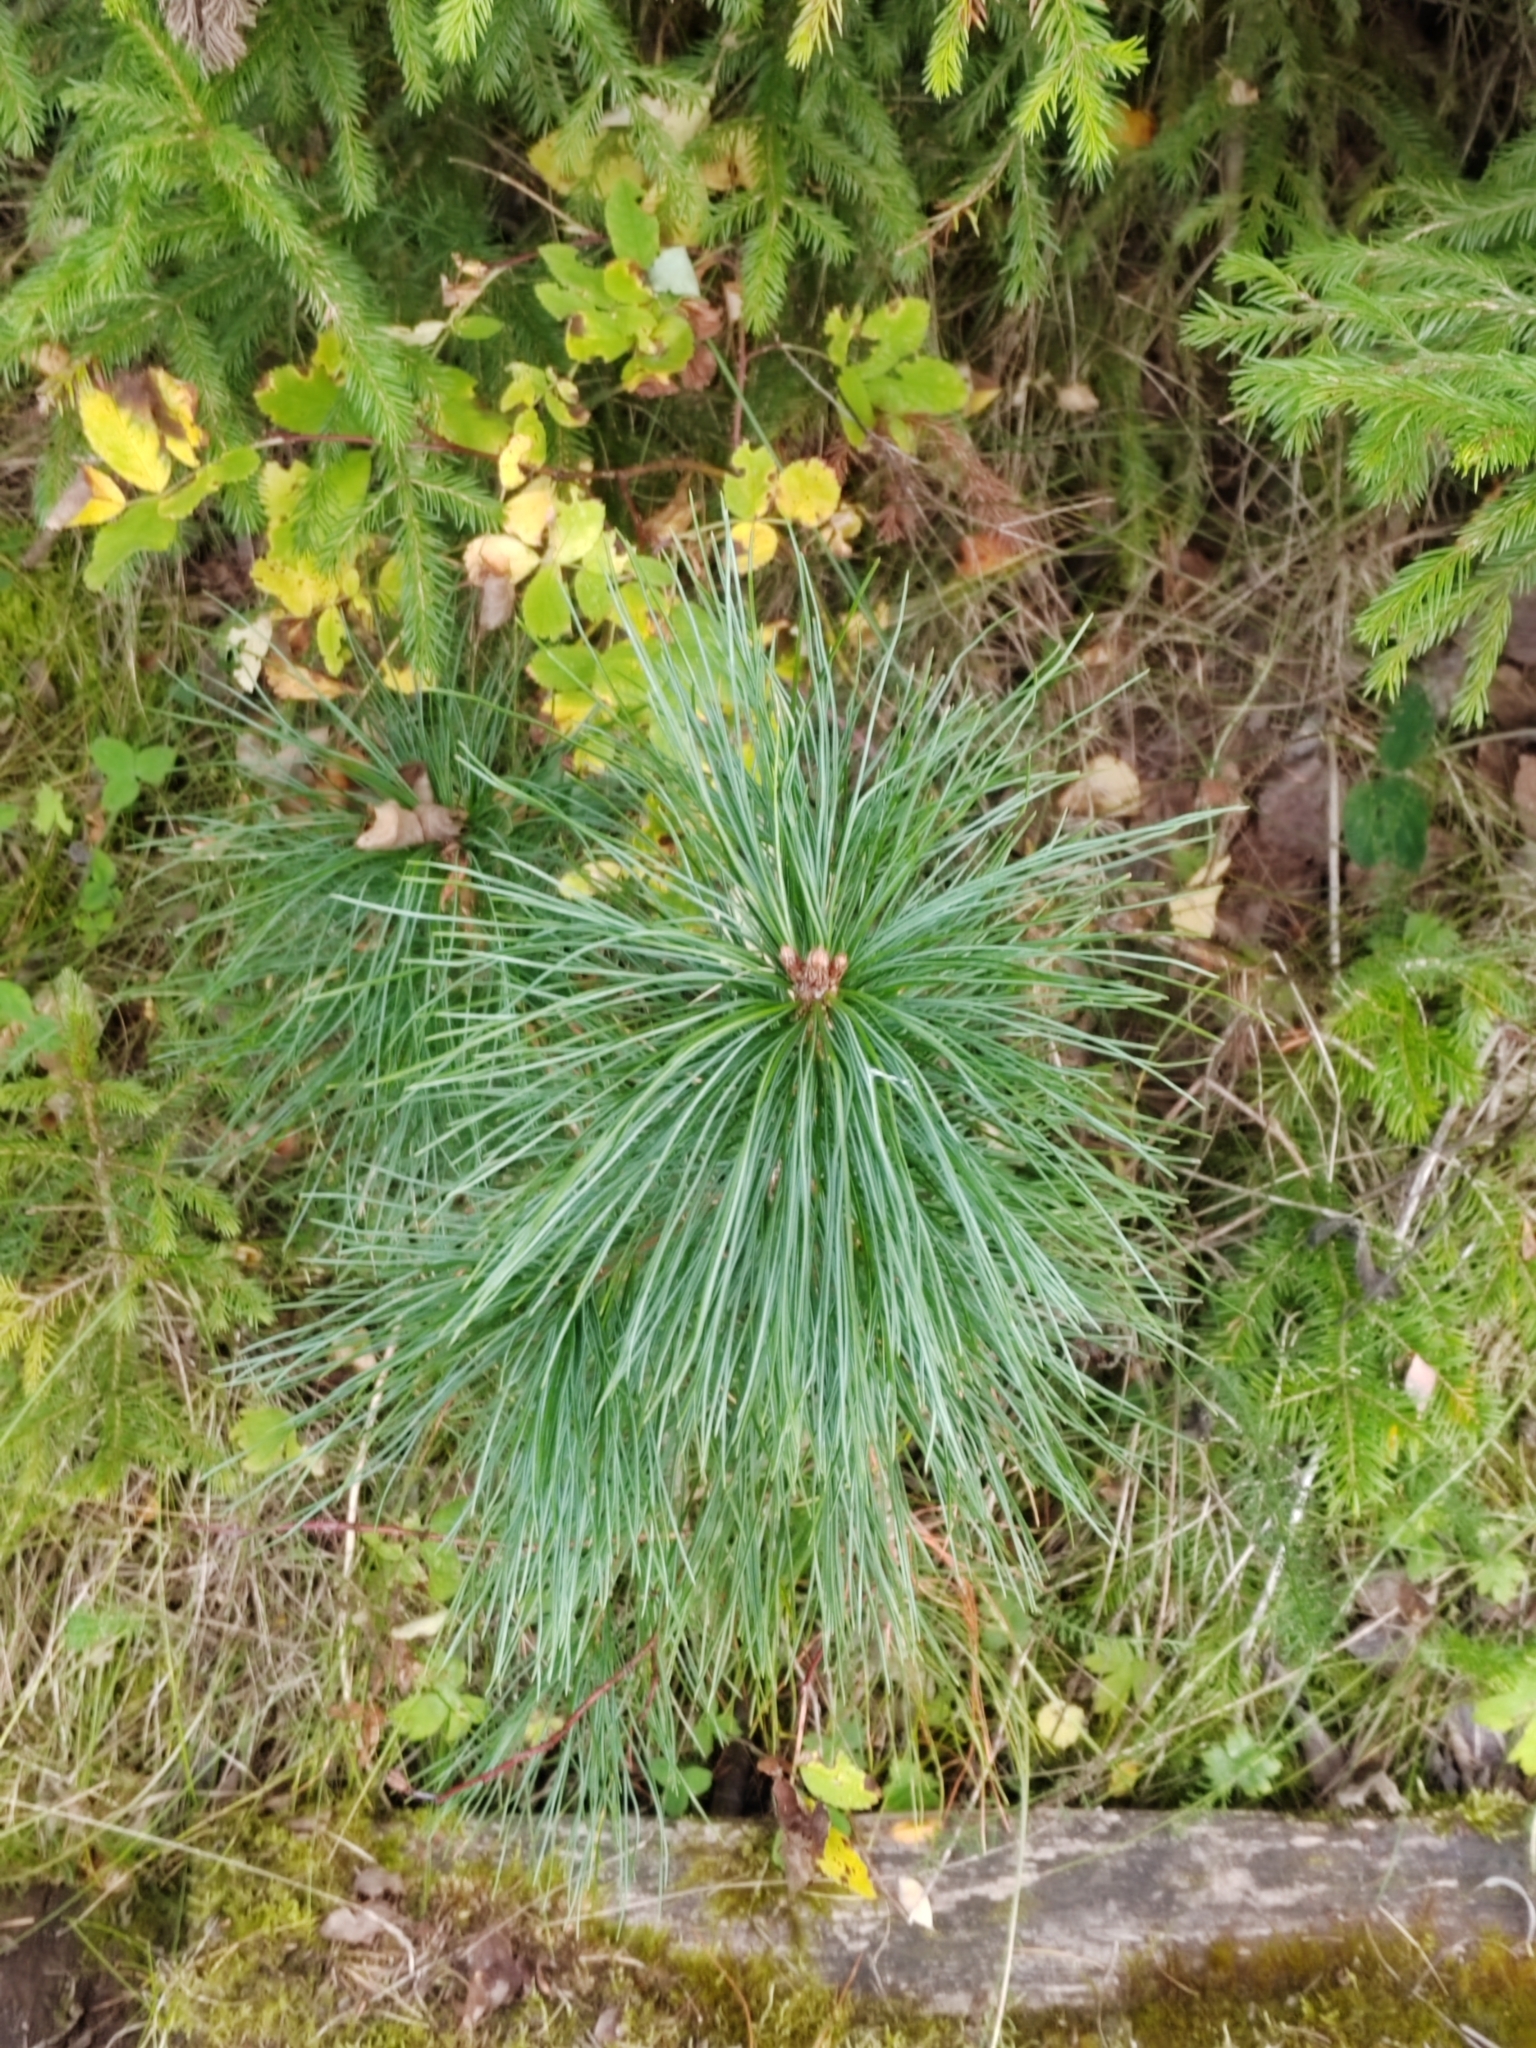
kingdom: Plantae
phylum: Tracheophyta
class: Pinopsida
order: Pinales
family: Pinaceae
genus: Pinus
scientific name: Pinus sibirica
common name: Siberian pine
